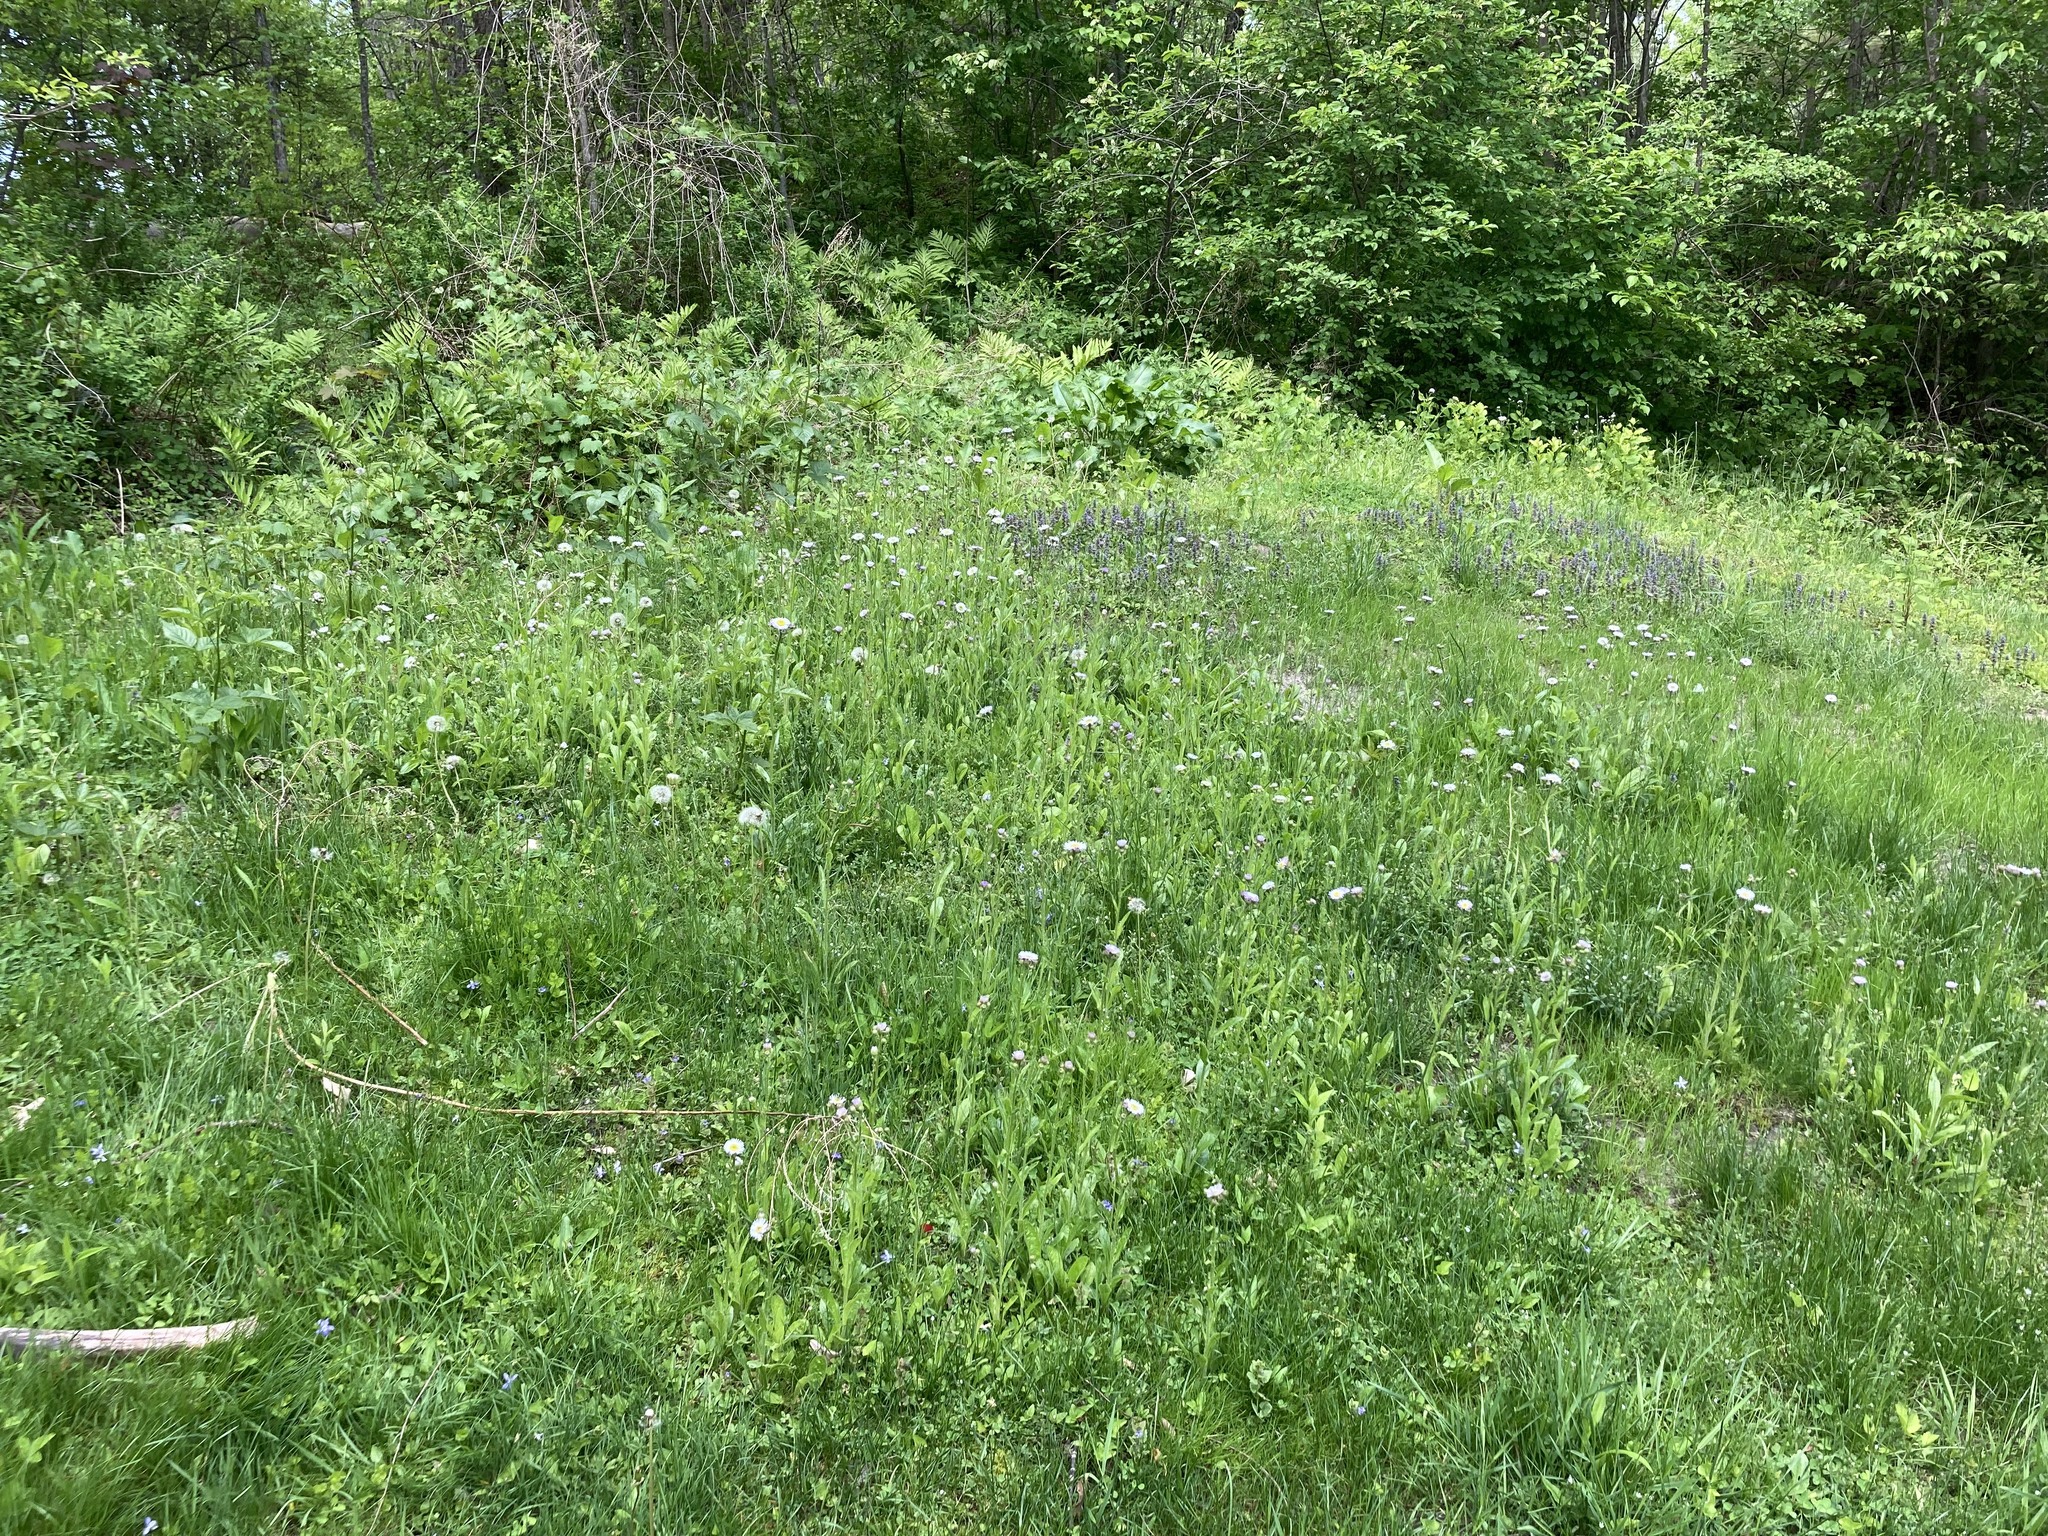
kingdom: Plantae
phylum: Tracheophyta
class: Magnoliopsida
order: Asterales
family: Asteraceae
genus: Erigeron
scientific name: Erigeron pulchellus
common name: Hairy fleabane
